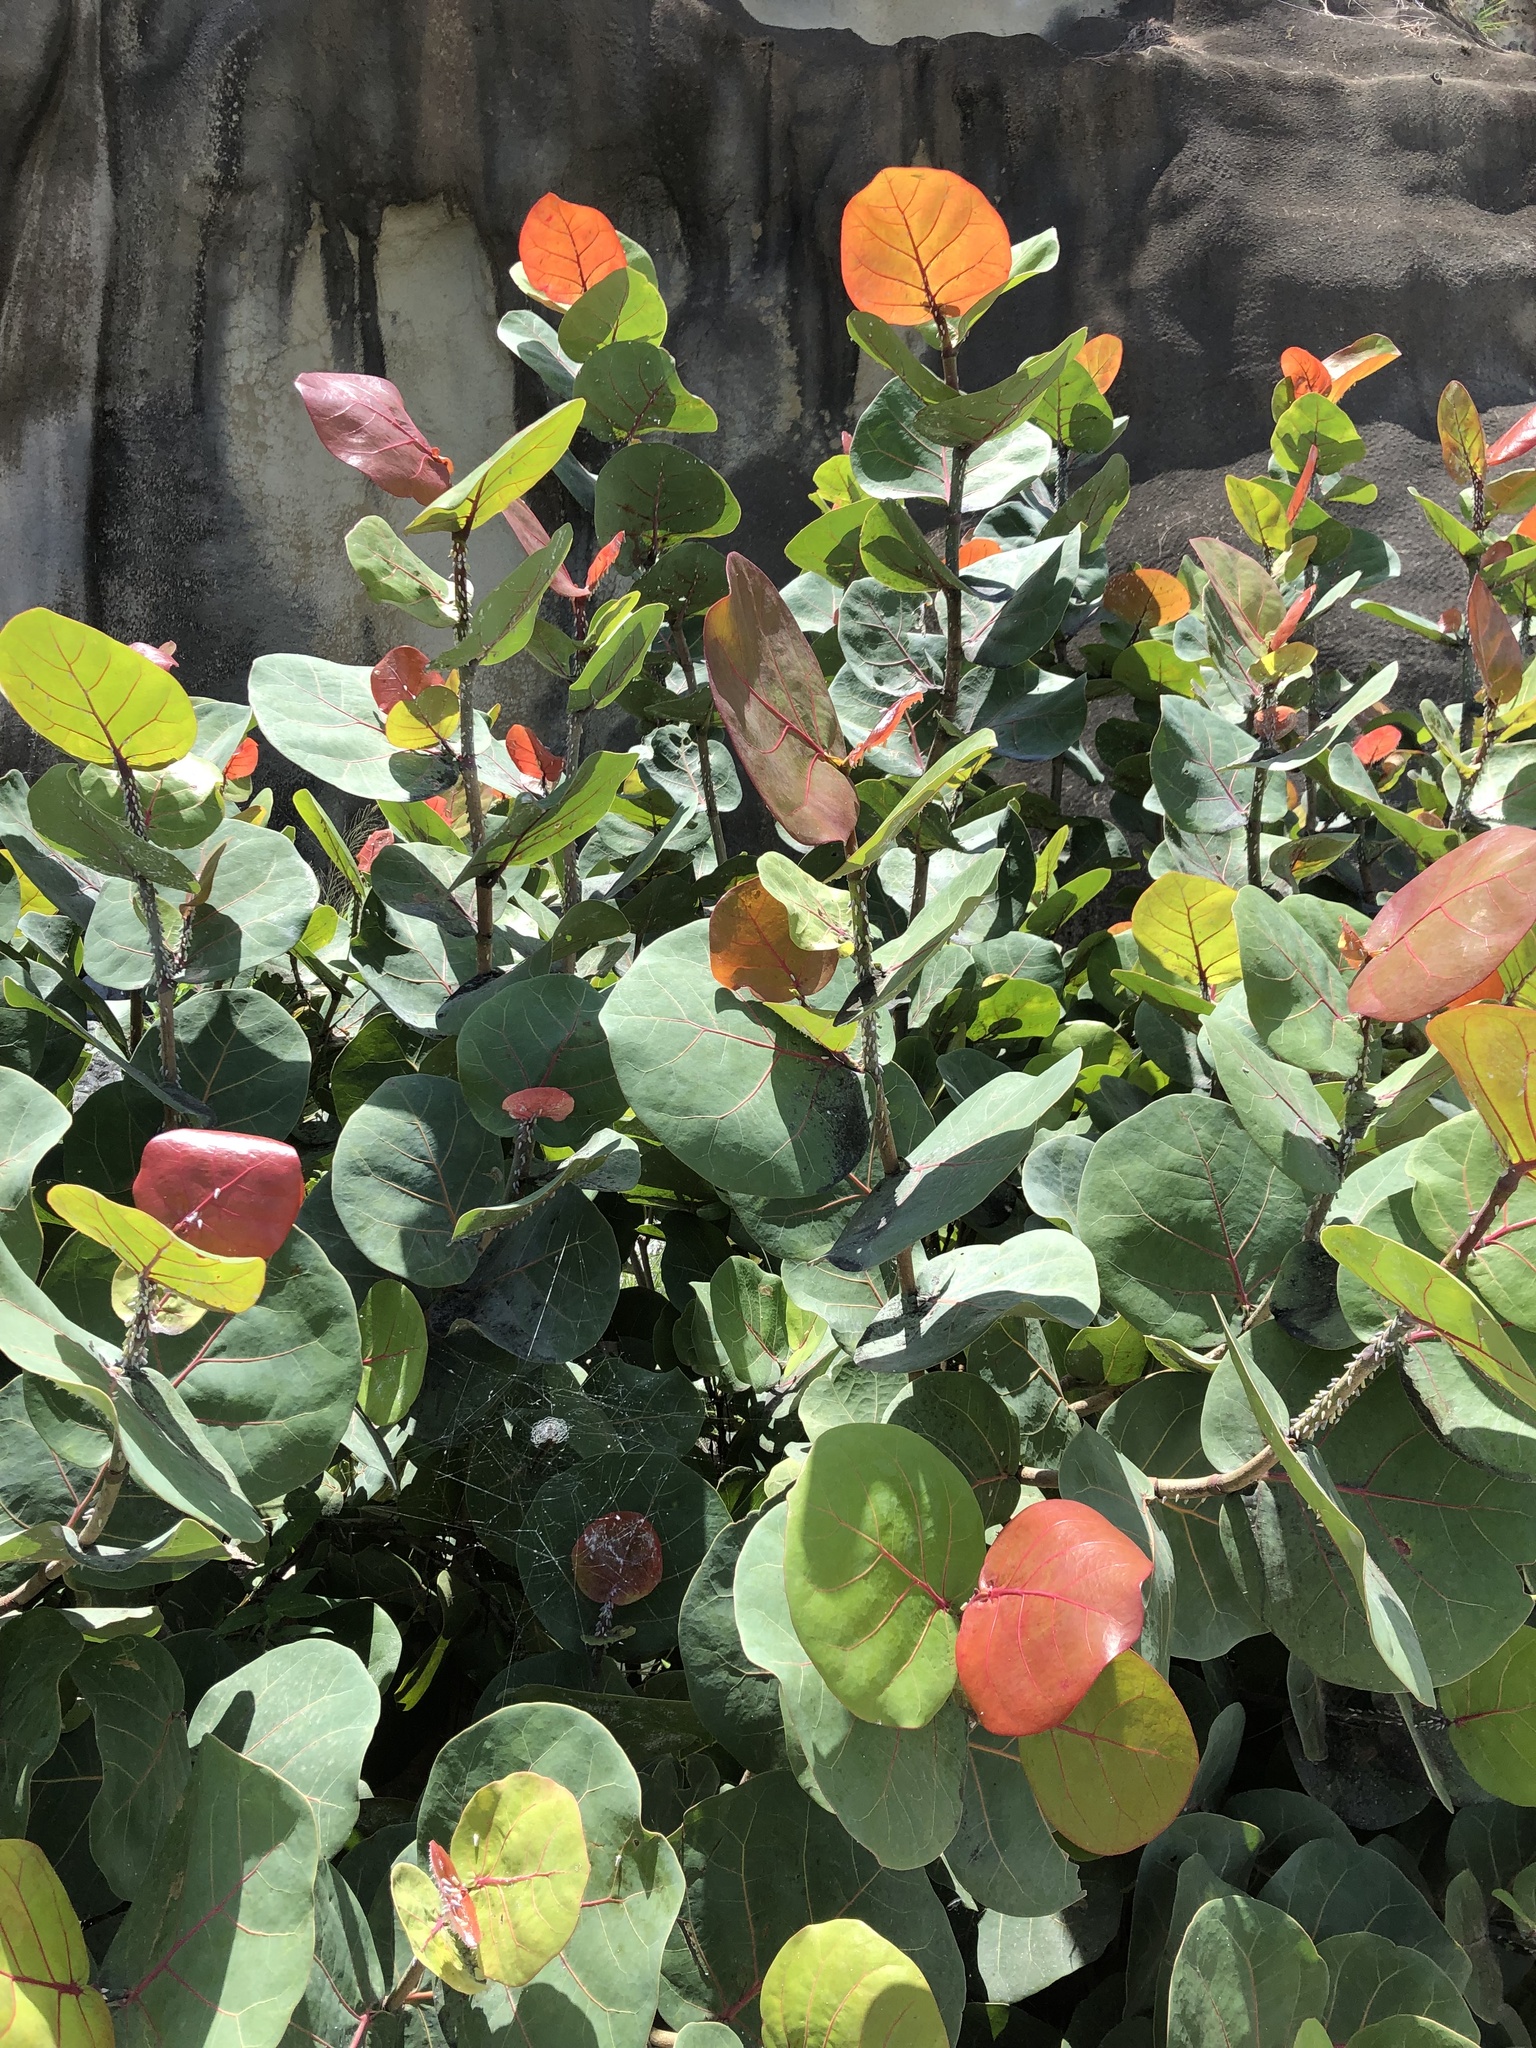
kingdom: Plantae
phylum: Tracheophyta
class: Magnoliopsida
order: Caryophyllales
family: Polygonaceae
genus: Coccoloba
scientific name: Coccoloba uvifera
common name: Seagrape
